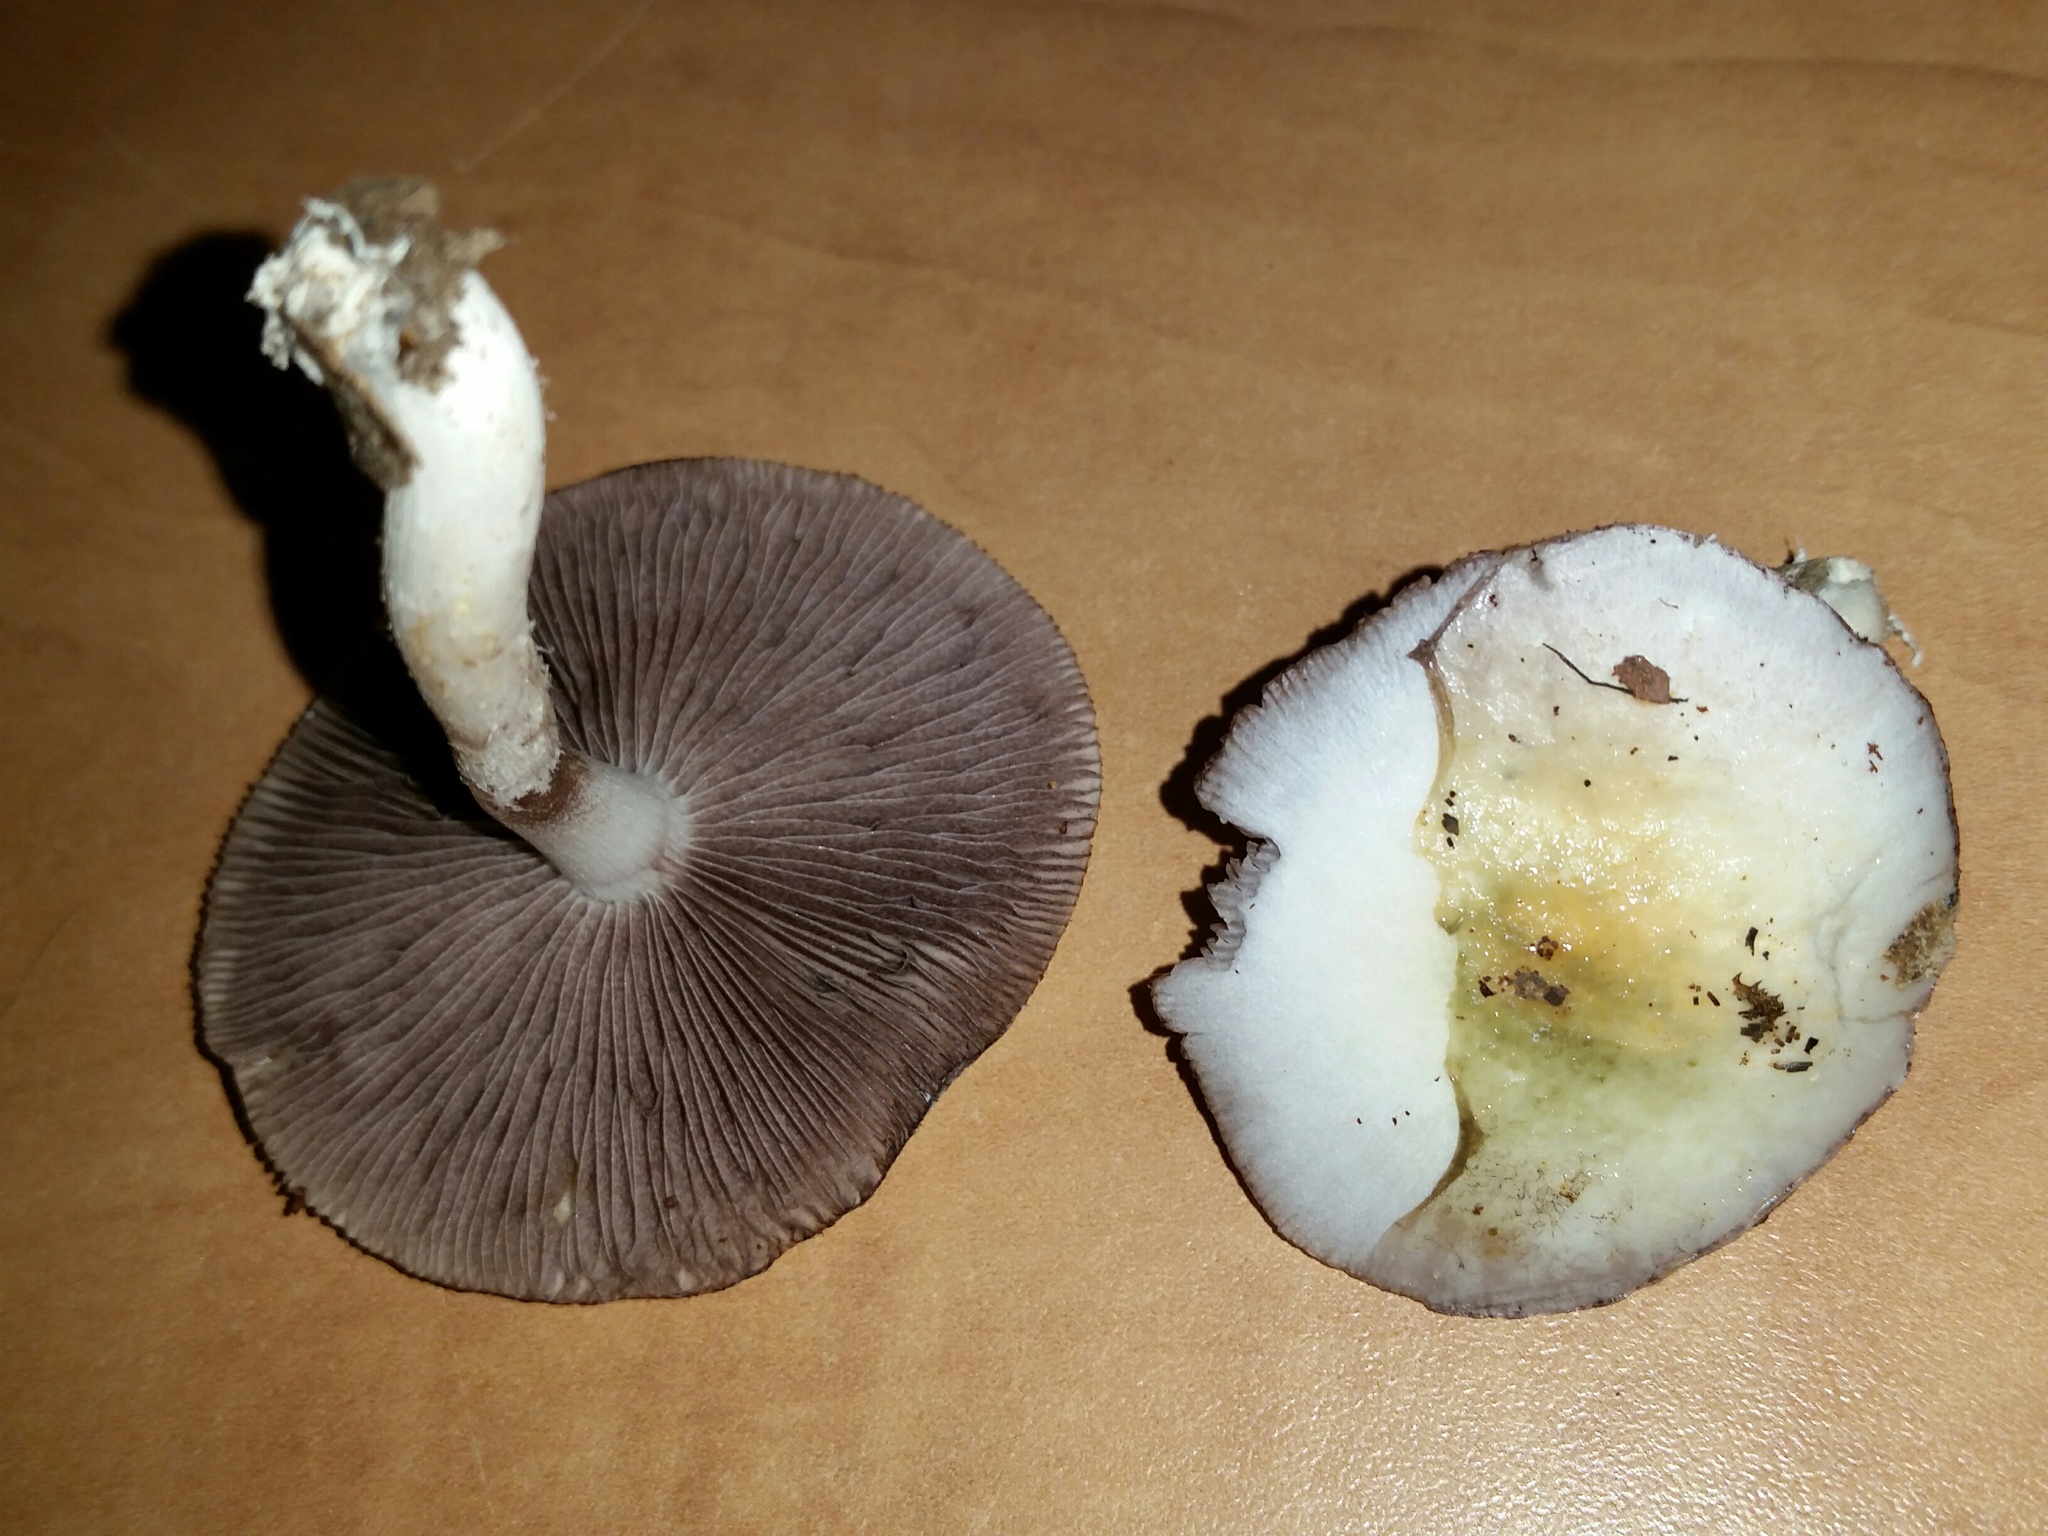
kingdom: Fungi
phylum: Basidiomycota
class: Agaricomycetes
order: Agaricales
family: Strophariaceae
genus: Stropharia
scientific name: Stropharia caerulea
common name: Blue roundhead
